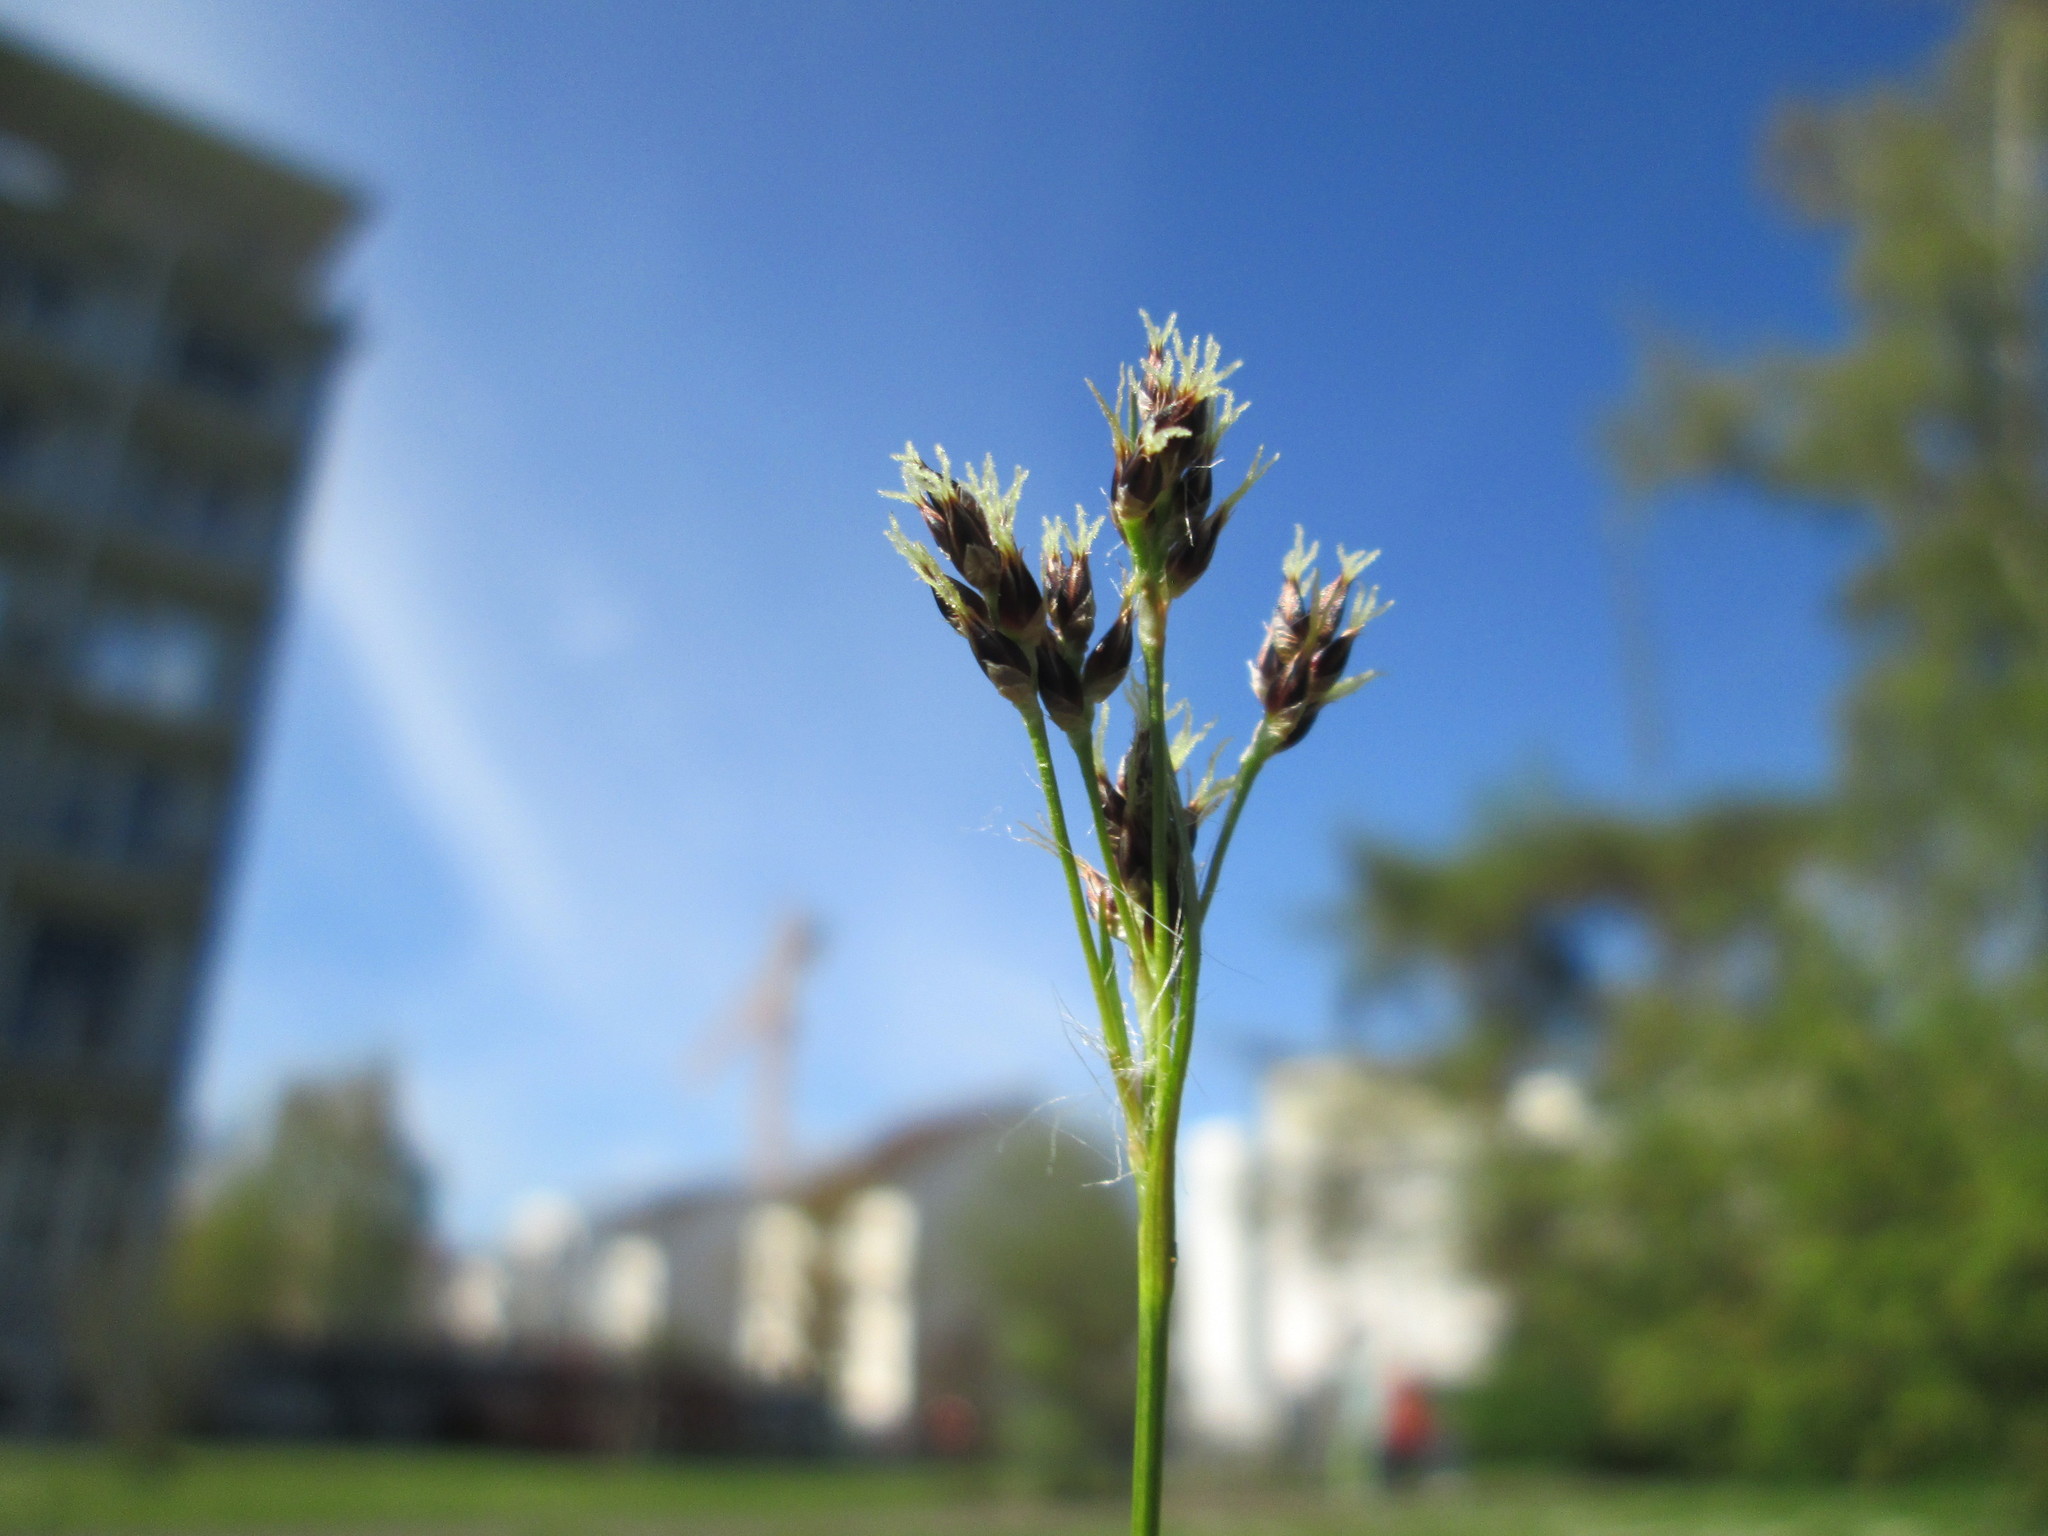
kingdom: Plantae
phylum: Tracheophyta
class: Liliopsida
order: Poales
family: Juncaceae
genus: Luzula
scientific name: Luzula campestris
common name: Field wood-rush
